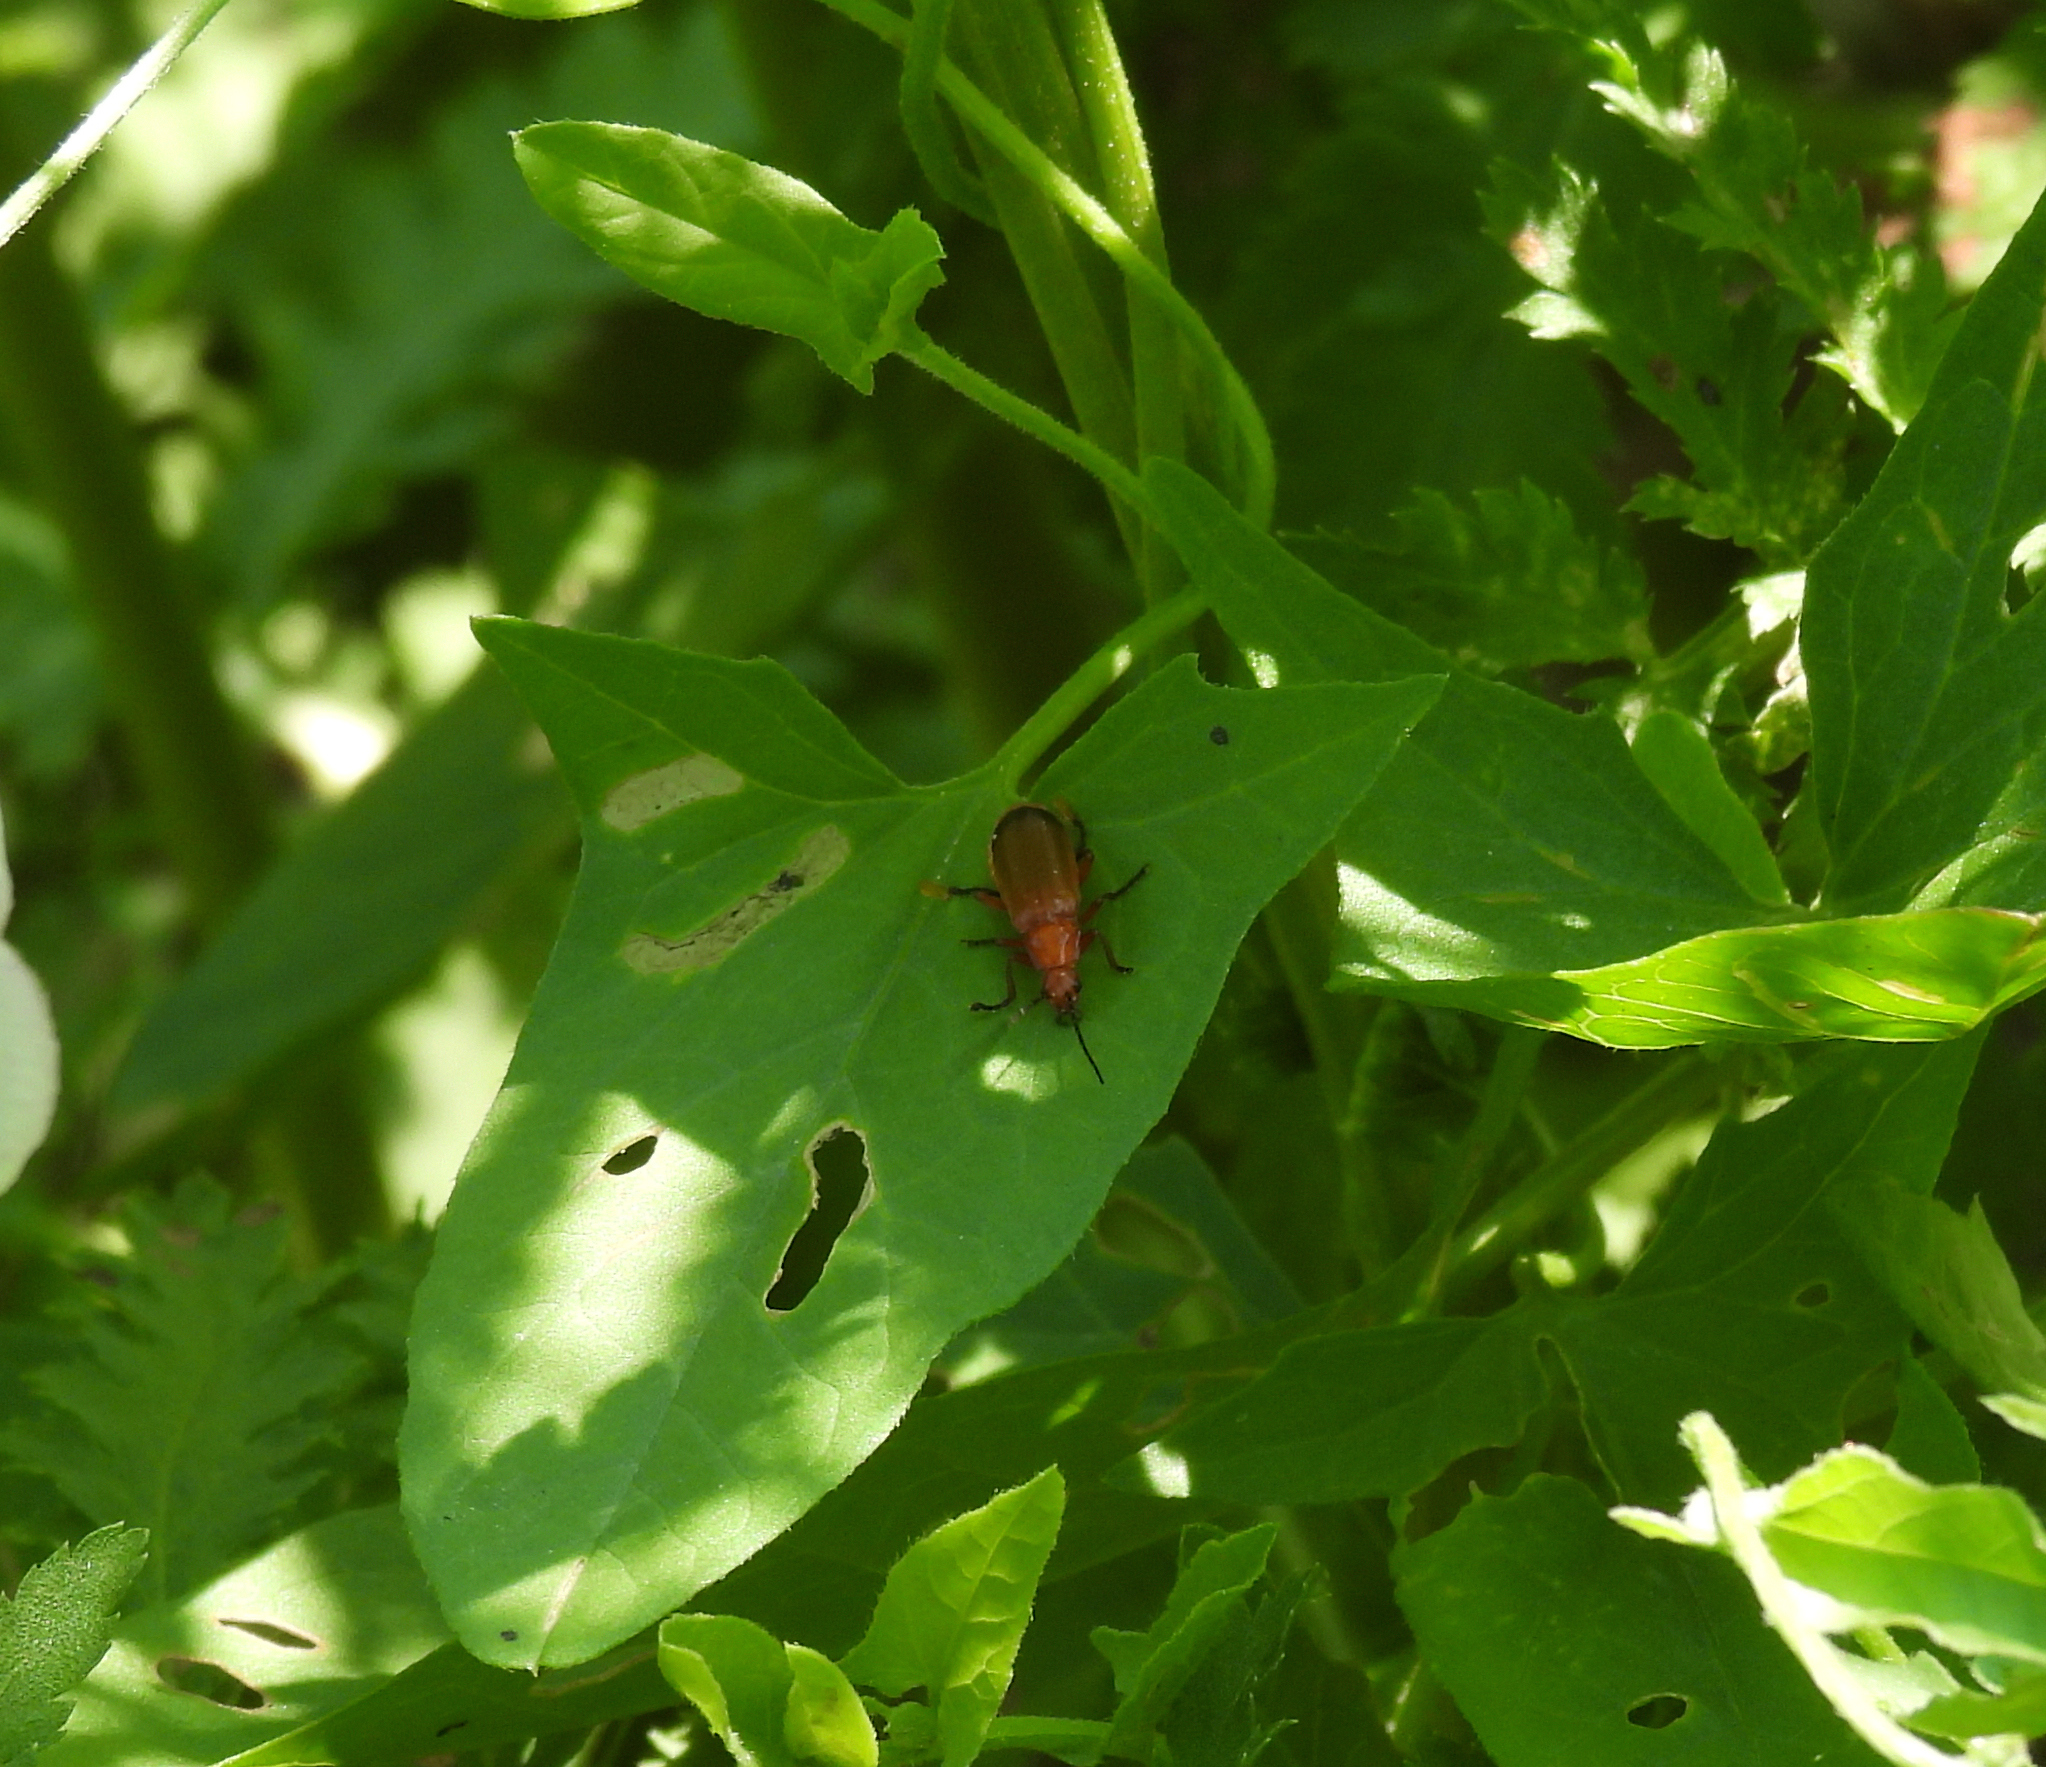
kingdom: Animalia
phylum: Arthropoda
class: Insecta
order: Coleoptera
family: Cantharidae
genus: Rhagonycha
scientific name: Rhagonycha fulva
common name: Common red soldier beetle
